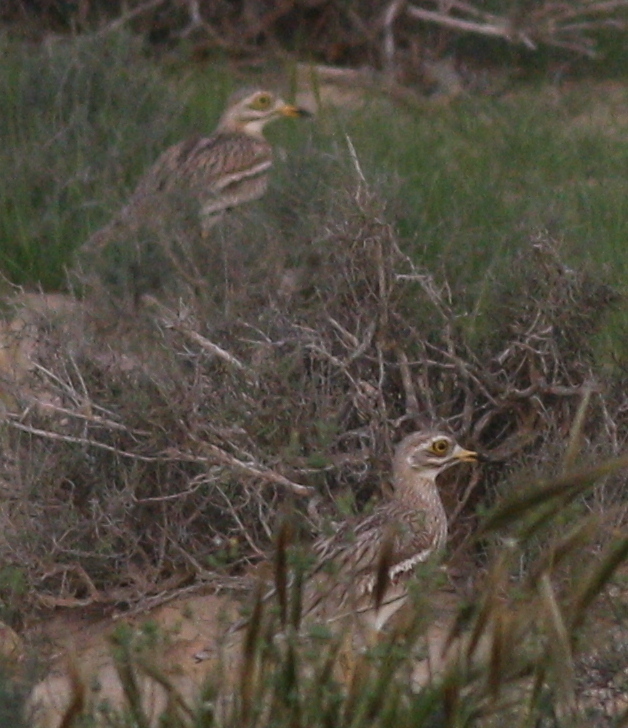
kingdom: Animalia
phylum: Chordata
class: Aves
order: Charadriiformes
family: Burhinidae
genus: Burhinus
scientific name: Burhinus oedicnemus
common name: Eurasian stone-curlew
